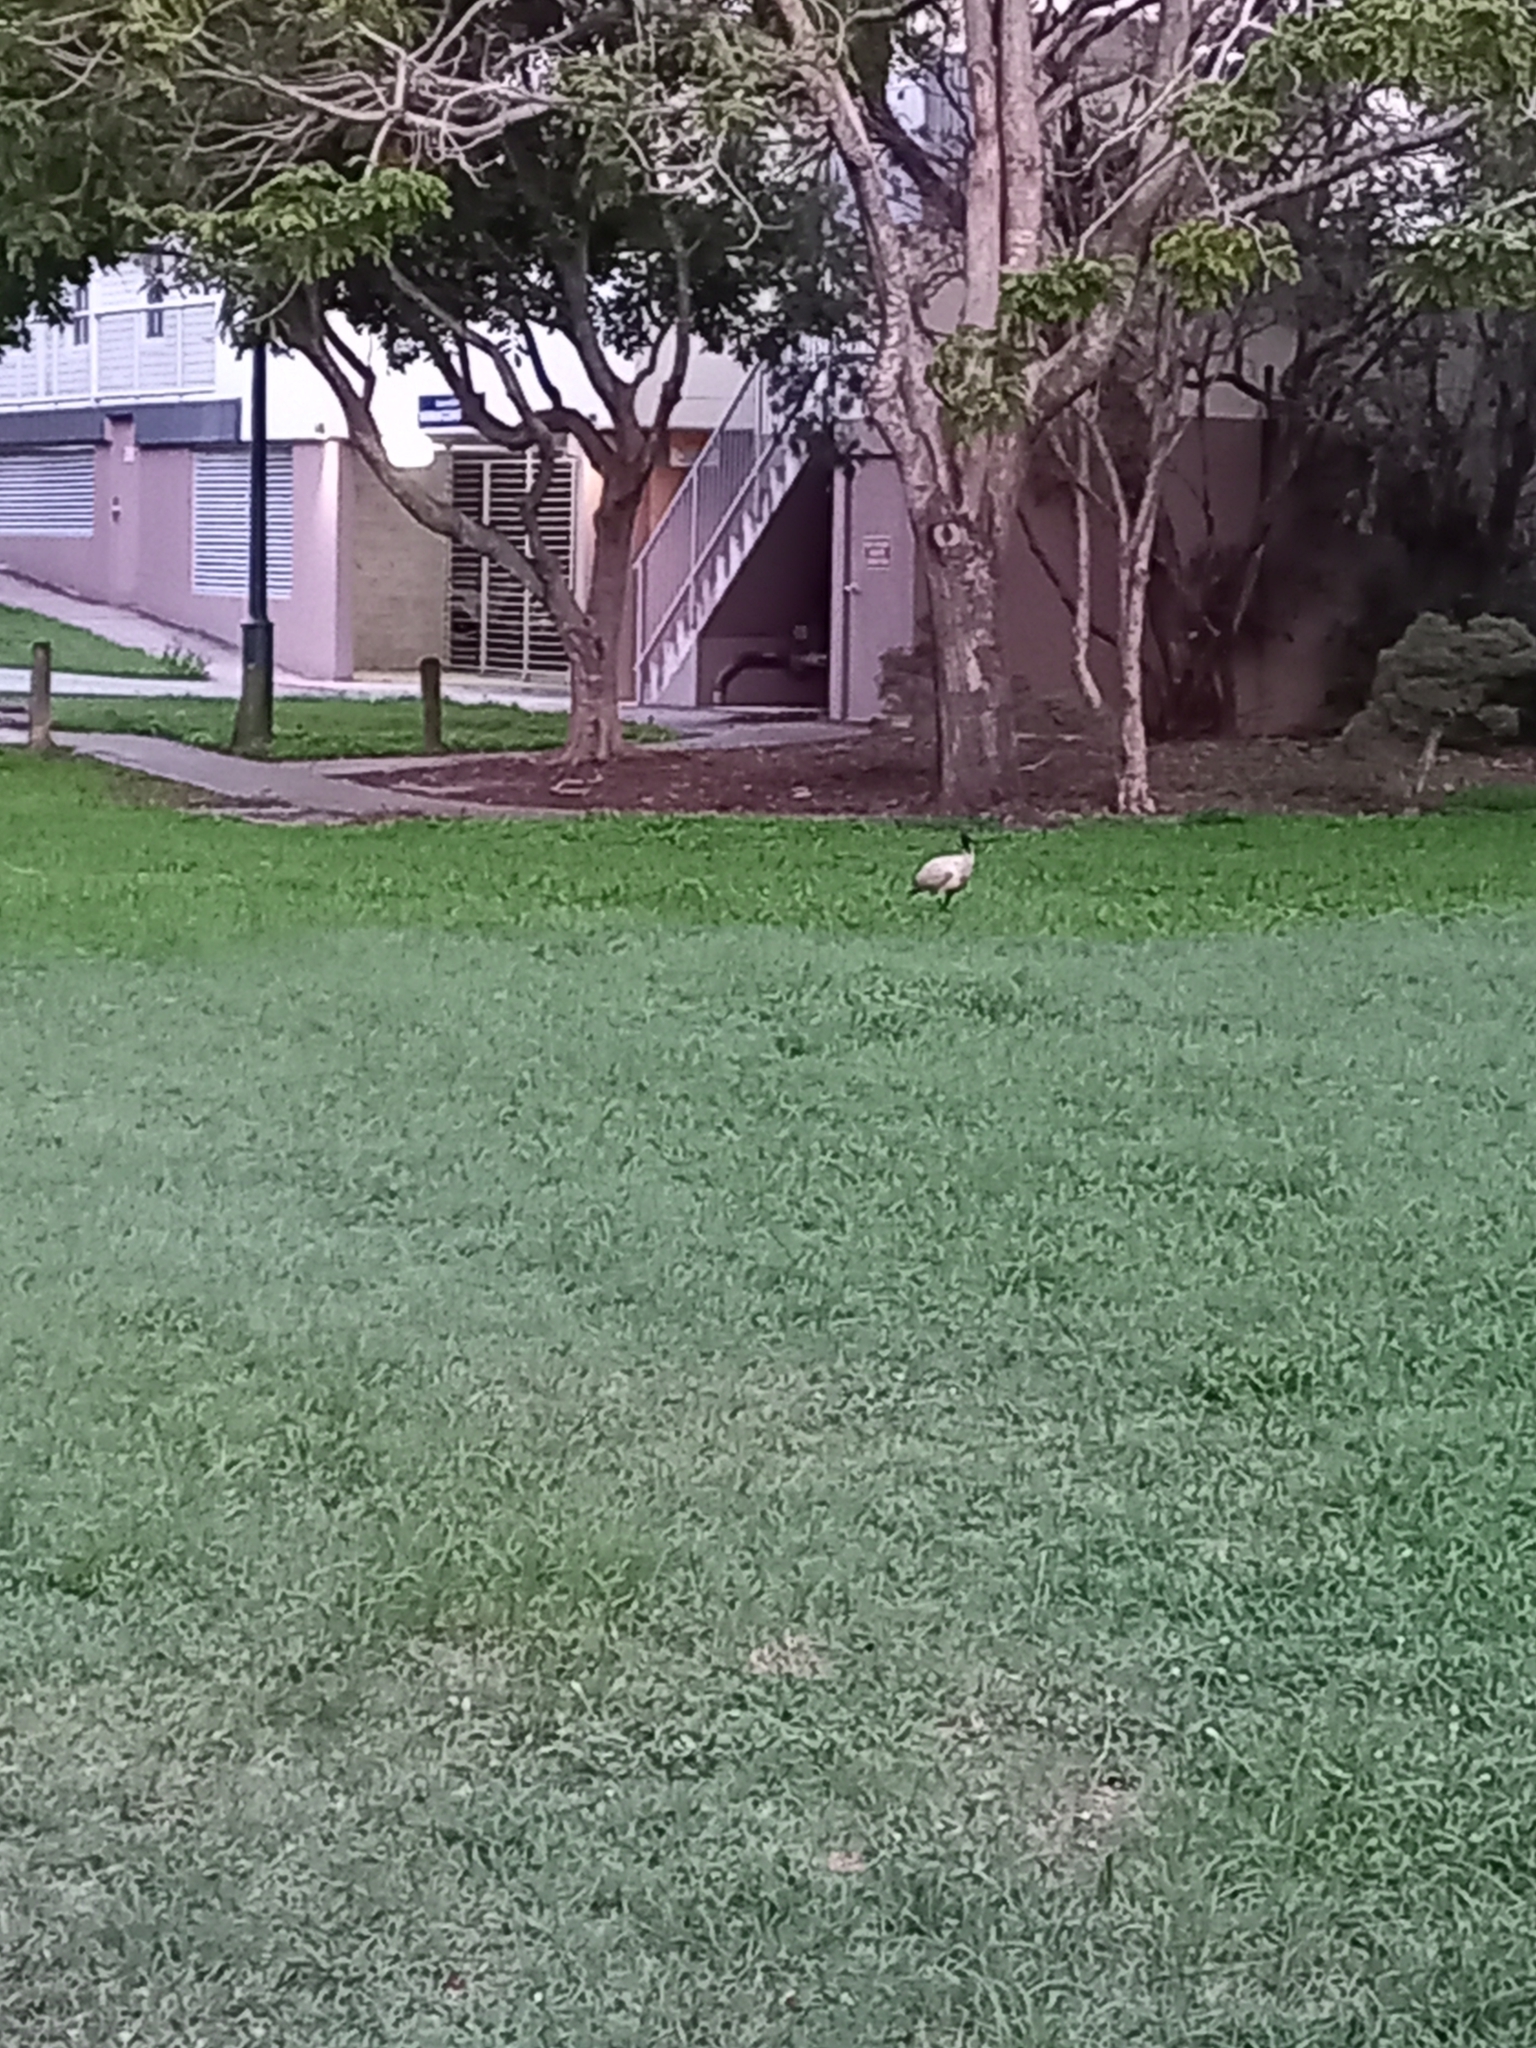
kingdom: Animalia
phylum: Chordata
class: Aves
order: Pelecaniformes
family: Threskiornithidae
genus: Threskiornis
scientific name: Threskiornis molucca
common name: Australian white ibis
